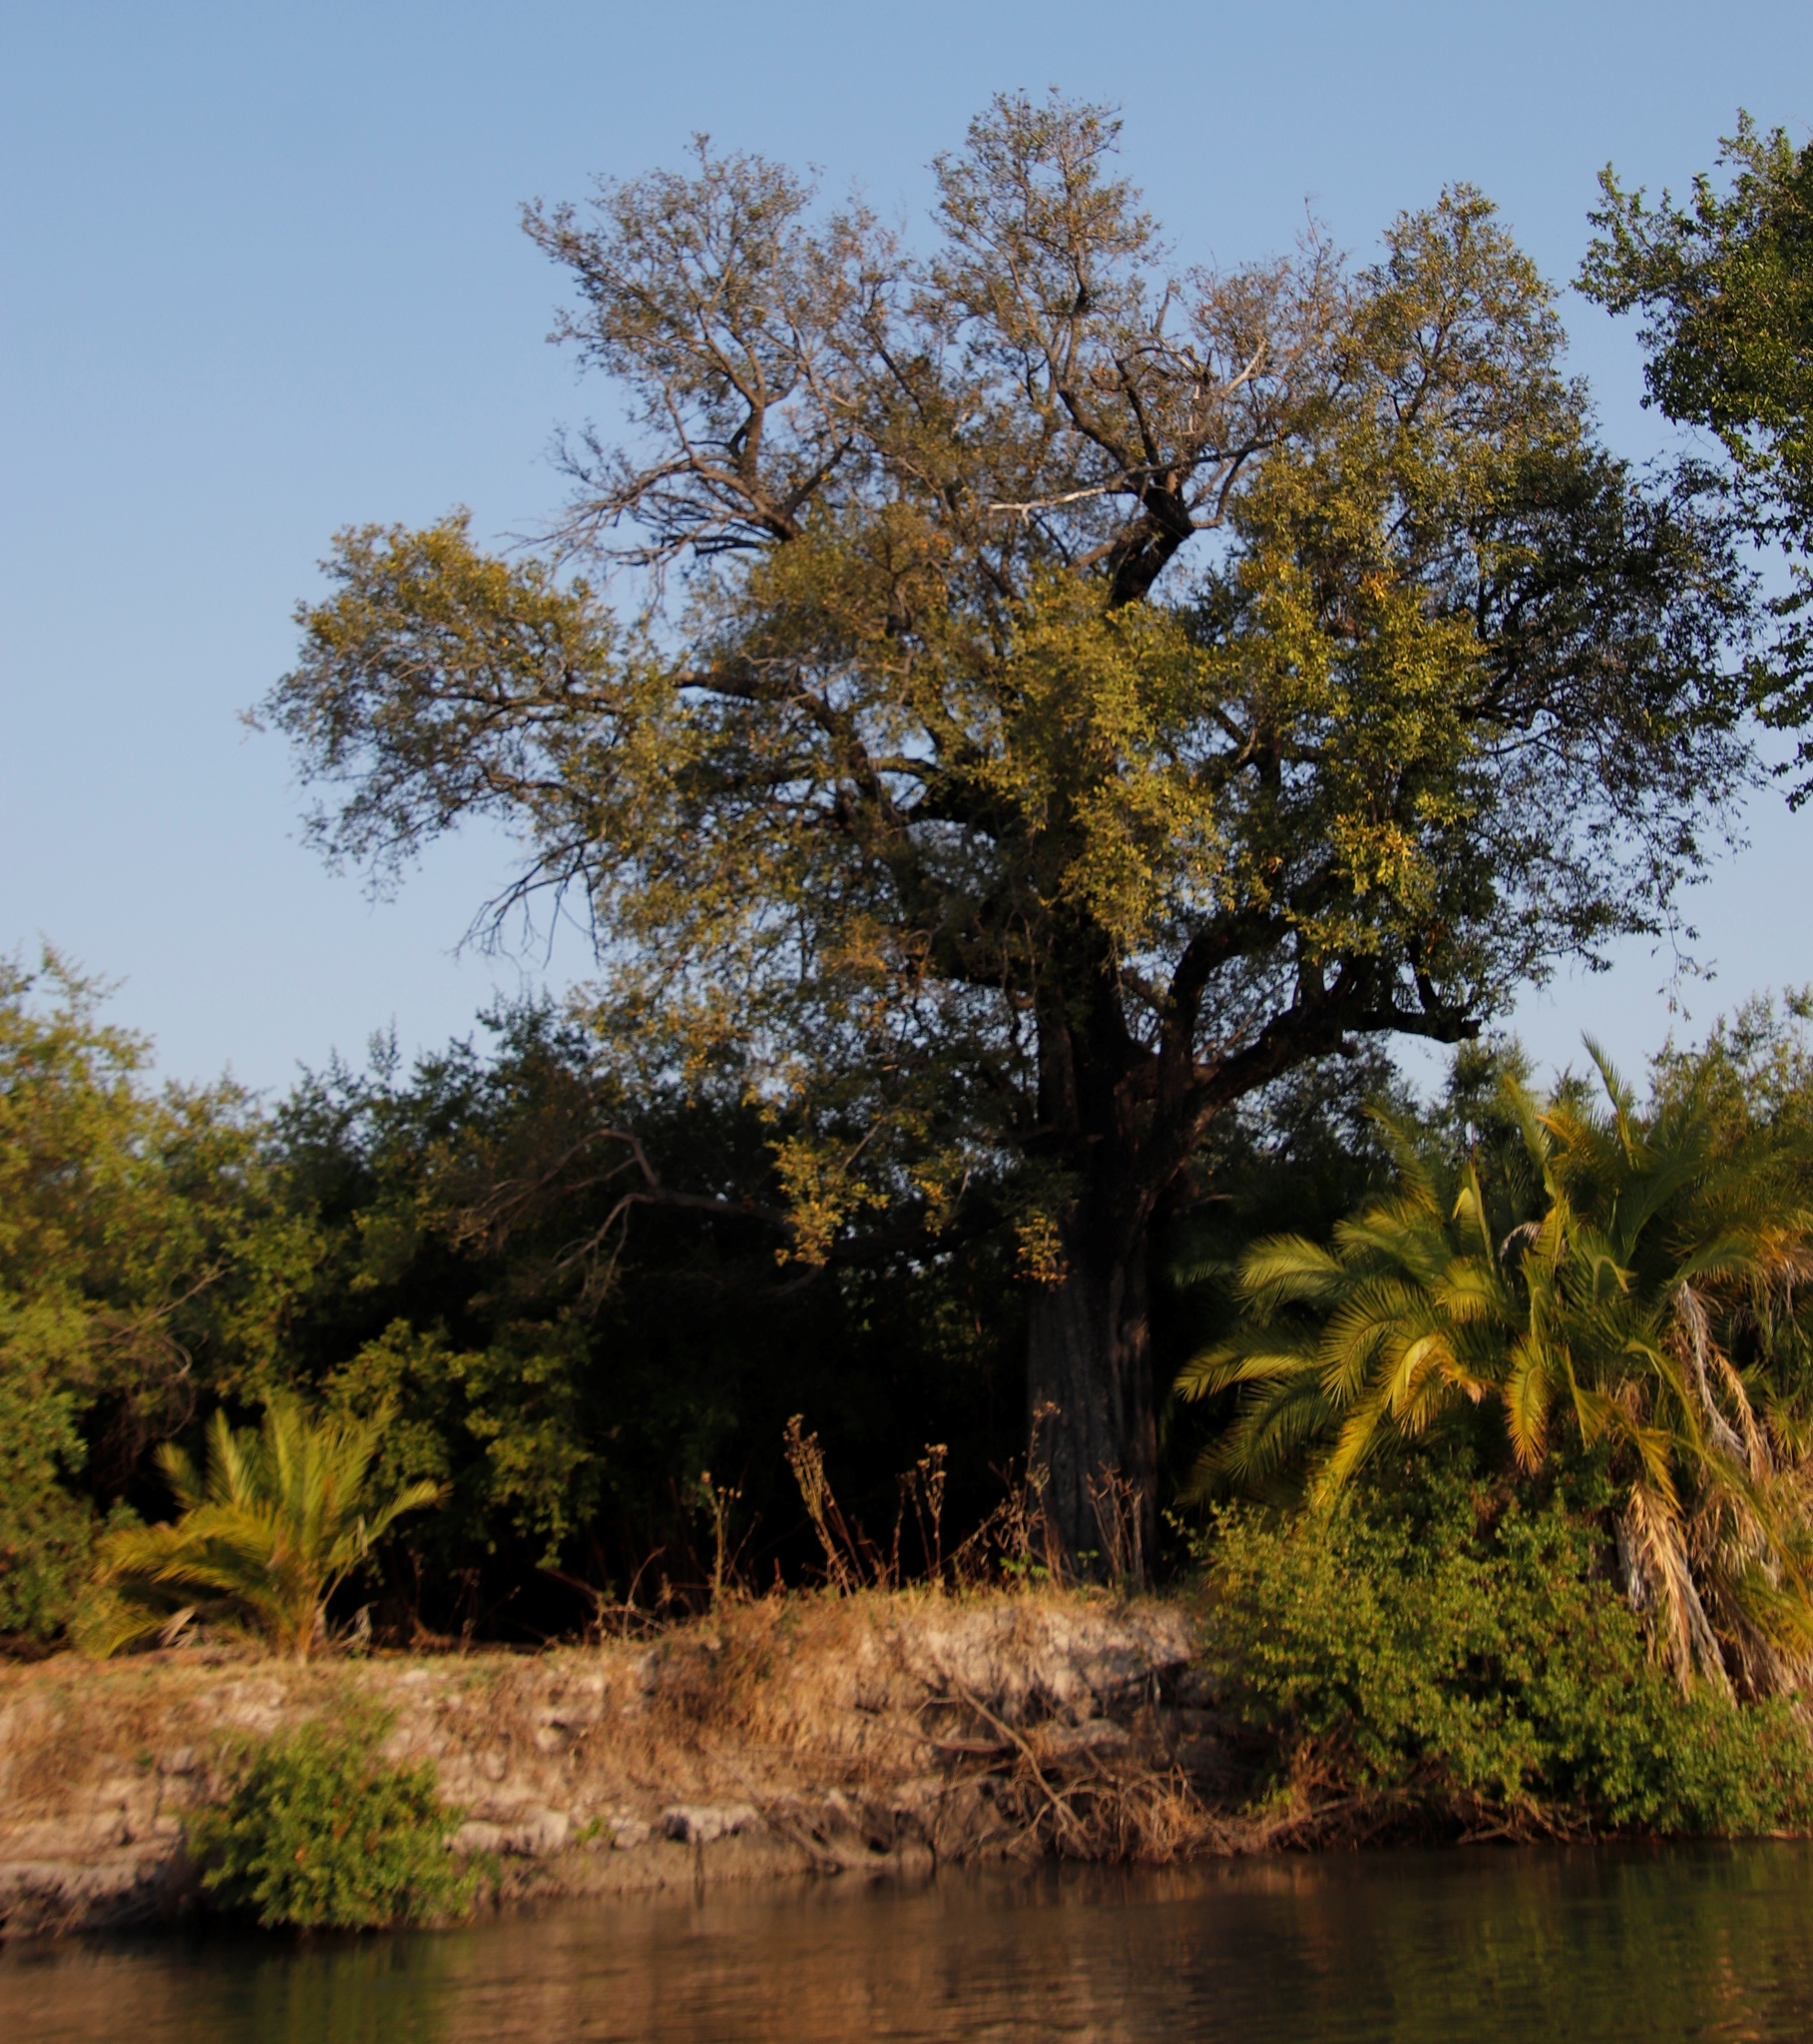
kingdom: Plantae
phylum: Tracheophyta
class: Magnoliopsida
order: Ericales
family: Ebenaceae
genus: Diospyros
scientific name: Diospyros mespiliformis
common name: Ebony diospyros
